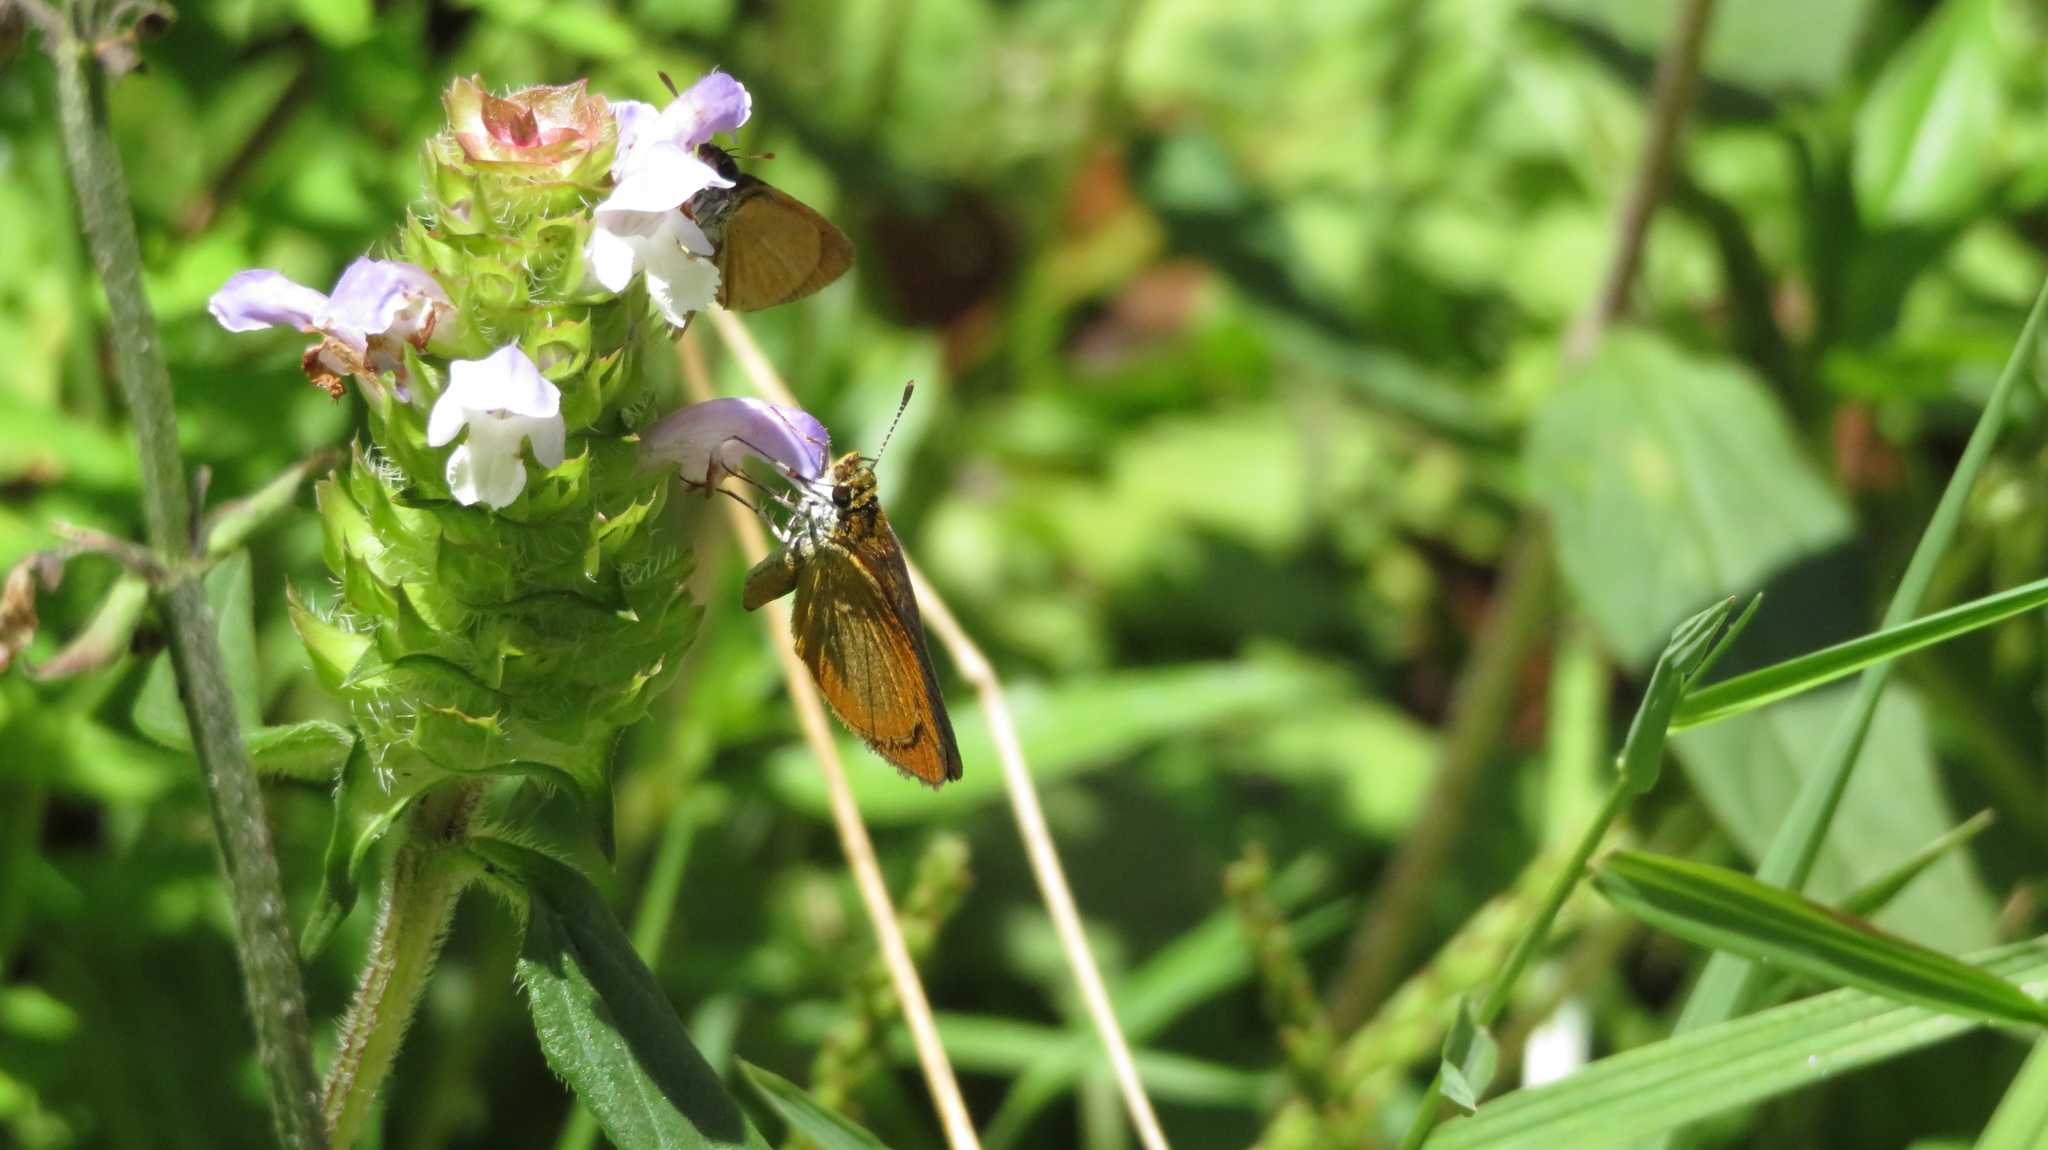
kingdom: Animalia
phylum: Arthropoda
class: Insecta
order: Lepidoptera
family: Hesperiidae
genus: Ancyloxypha
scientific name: Ancyloxypha numitor
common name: Least skipper
